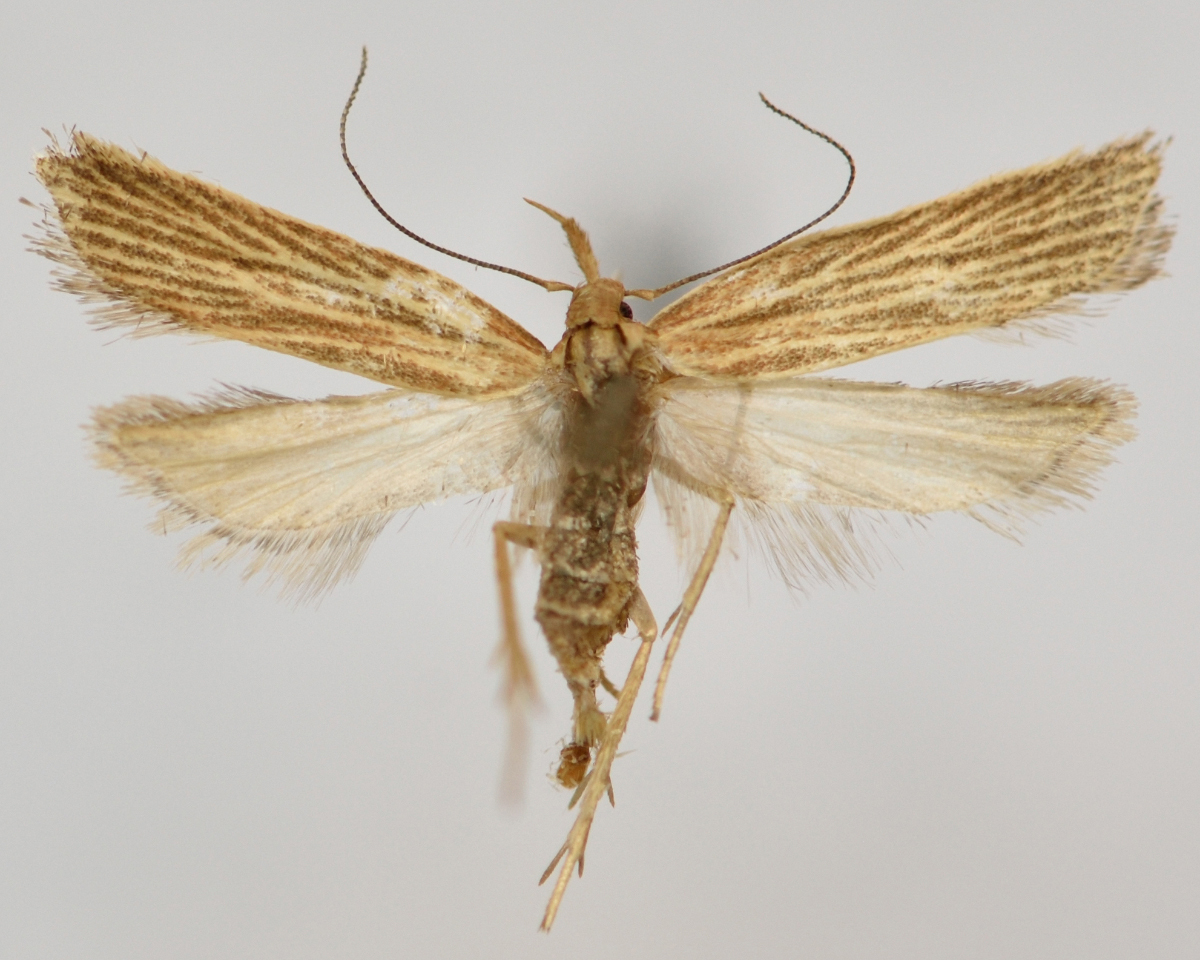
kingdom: Animalia
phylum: Arthropoda
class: Insecta
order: Lepidoptera
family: Gelechiidae
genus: Helcystogramma
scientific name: Helcystogramma albinervis
